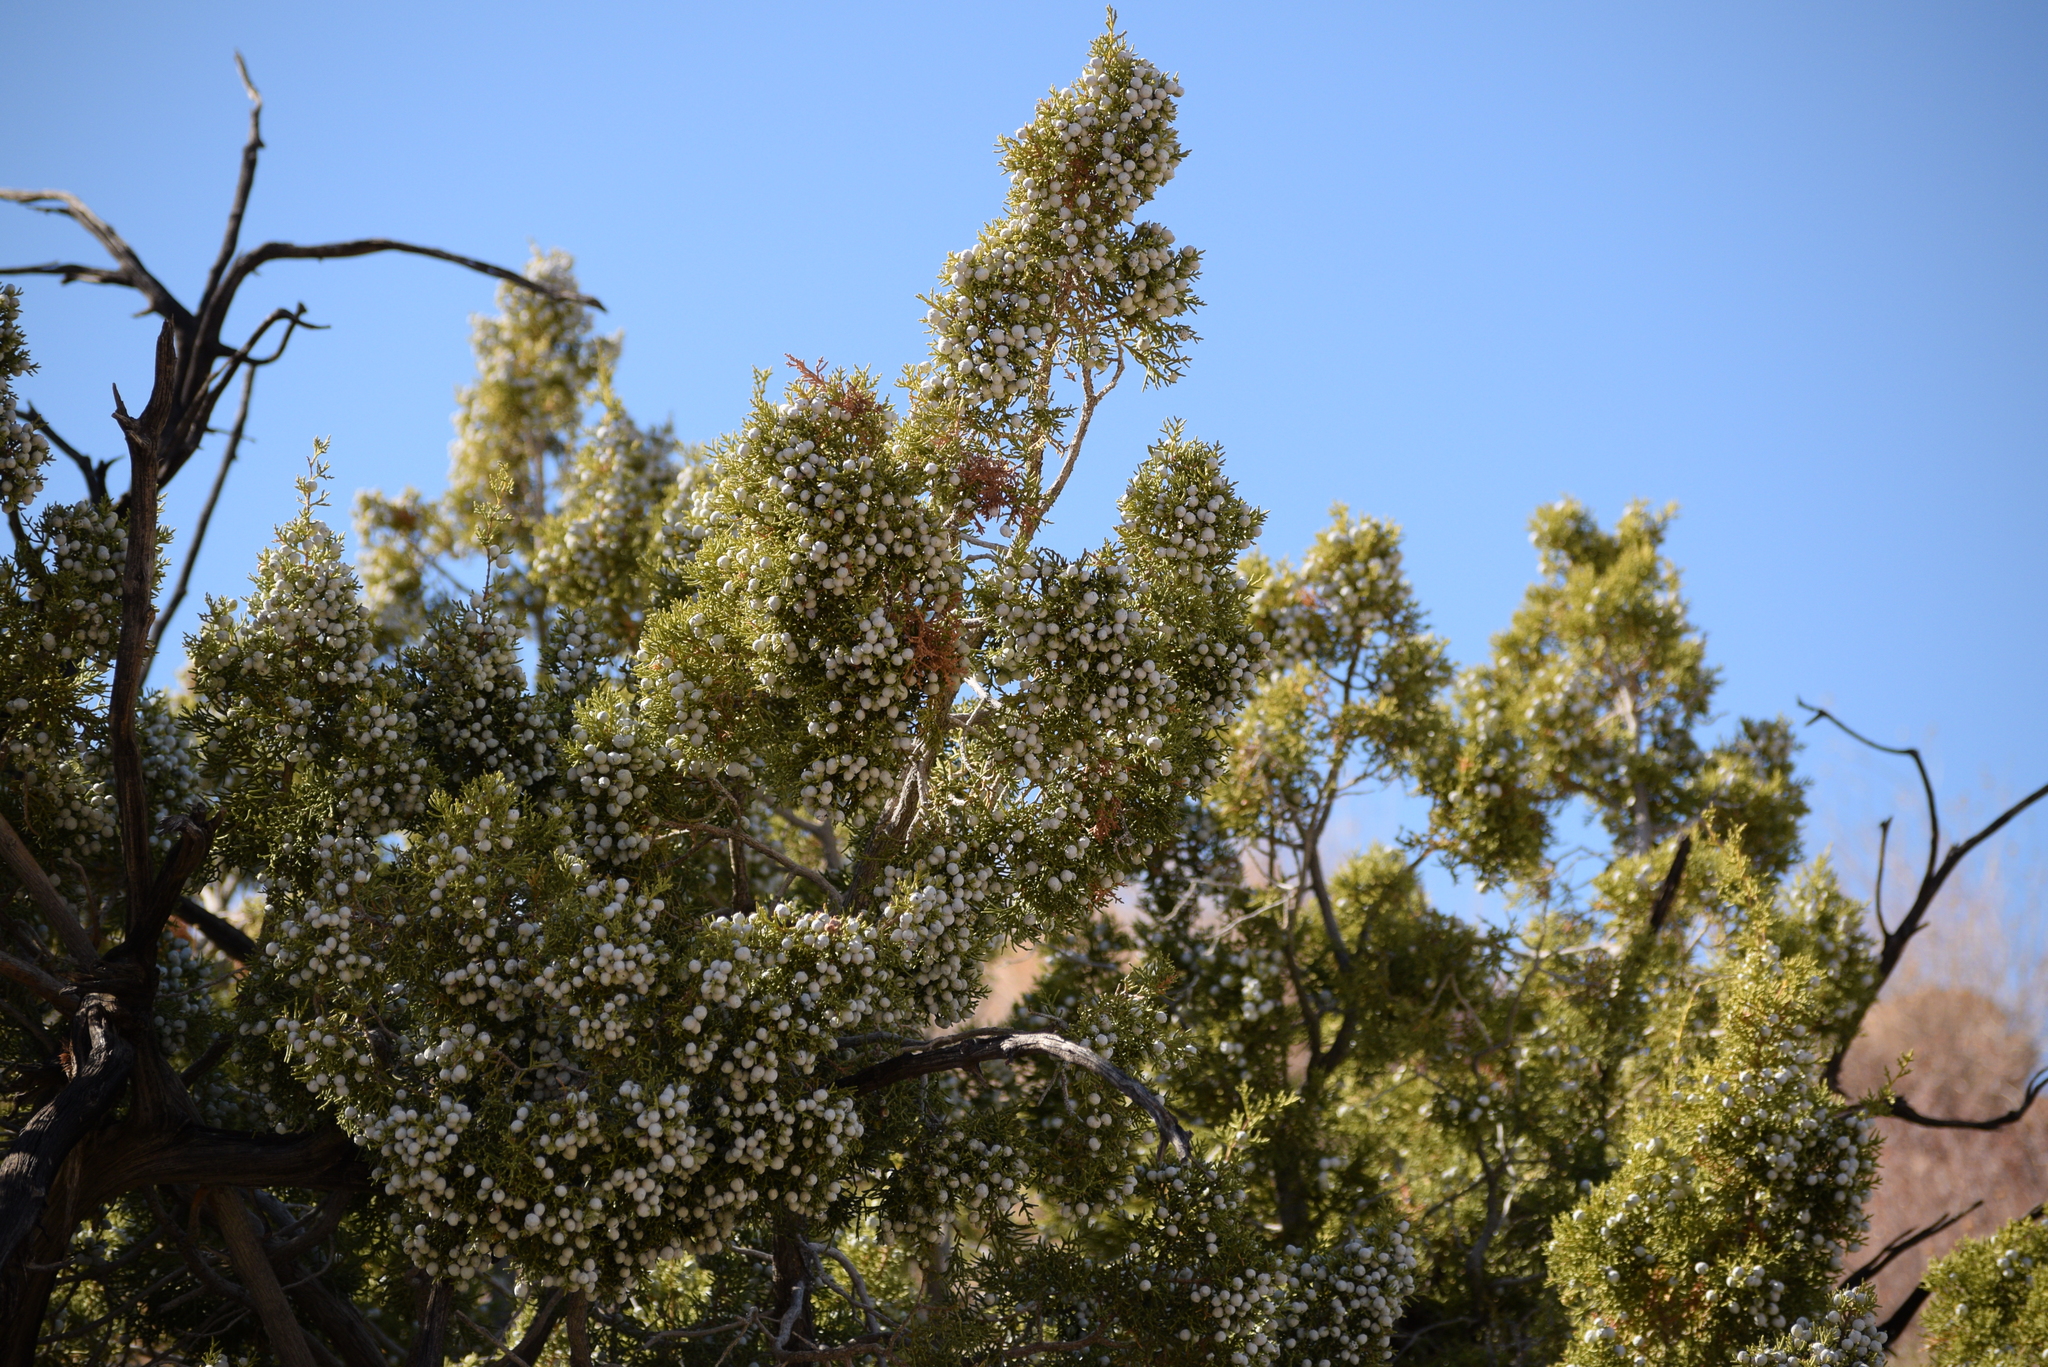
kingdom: Plantae
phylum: Tracheophyta
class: Pinopsida
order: Pinales
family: Cupressaceae
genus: Juniperus
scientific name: Juniperus californica
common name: California juniper
